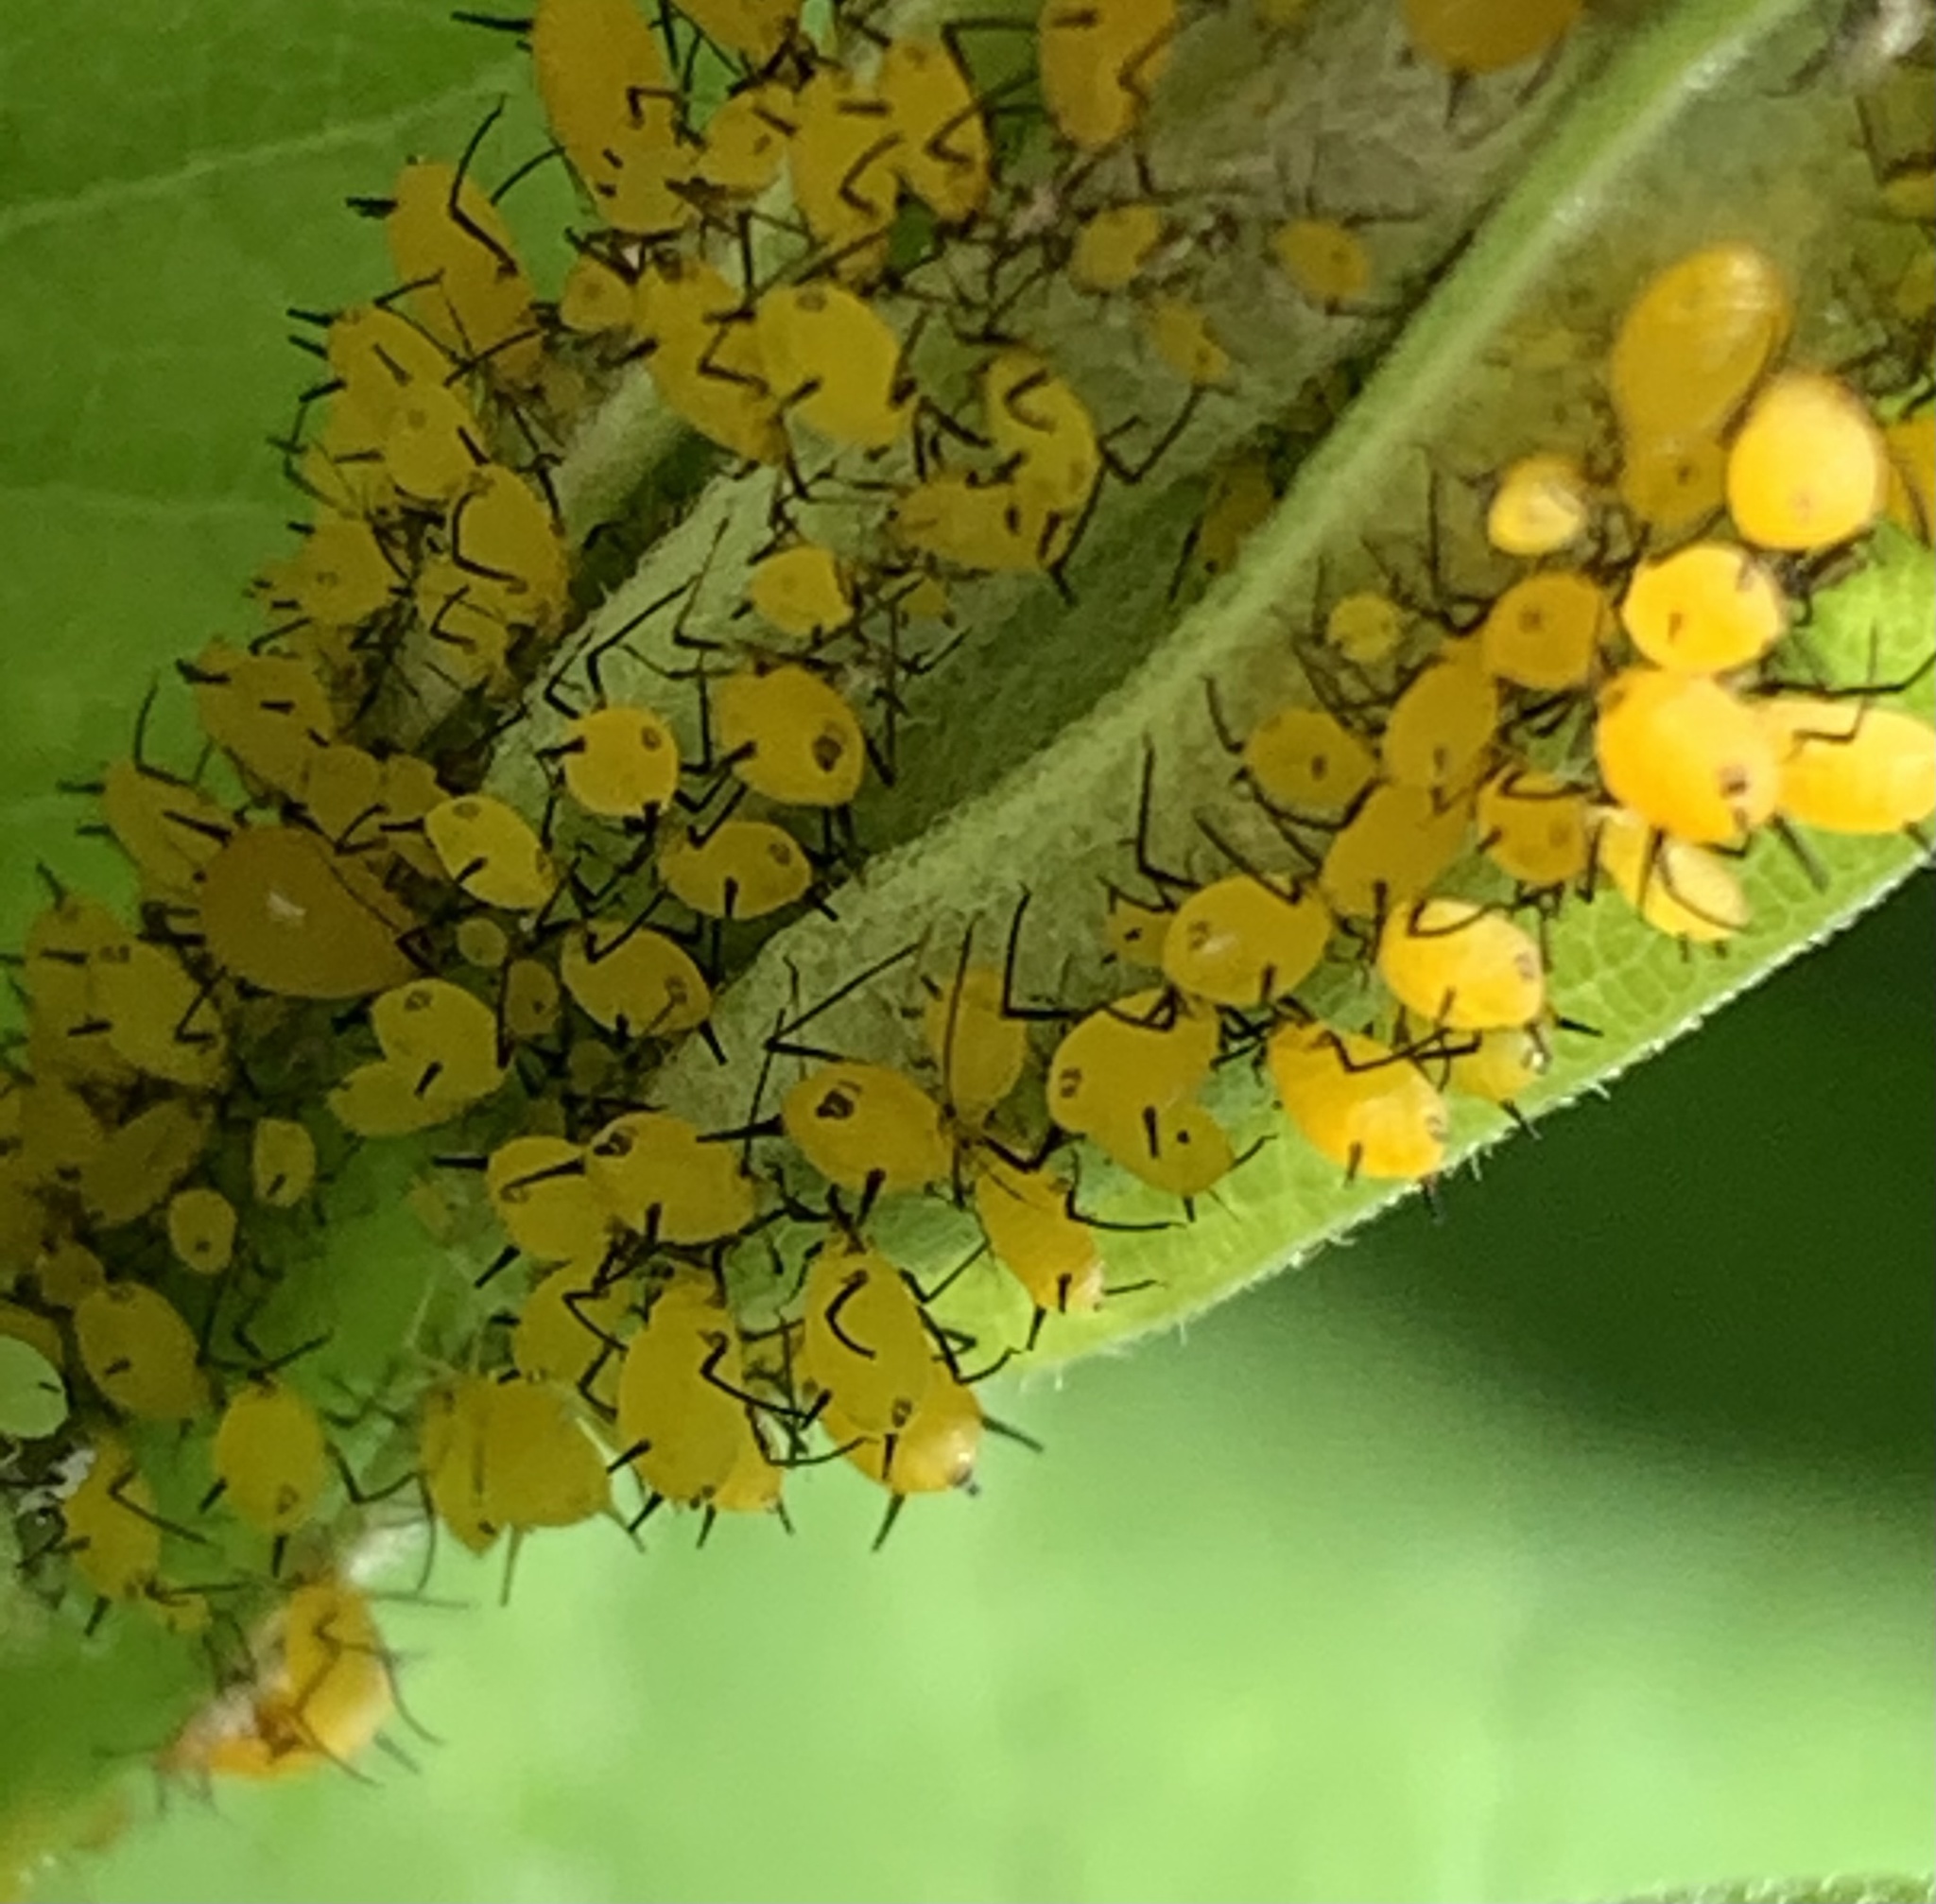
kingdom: Animalia
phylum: Arthropoda
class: Insecta
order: Hemiptera
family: Aphididae
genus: Aphis
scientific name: Aphis nerii
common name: Oleander aphid
